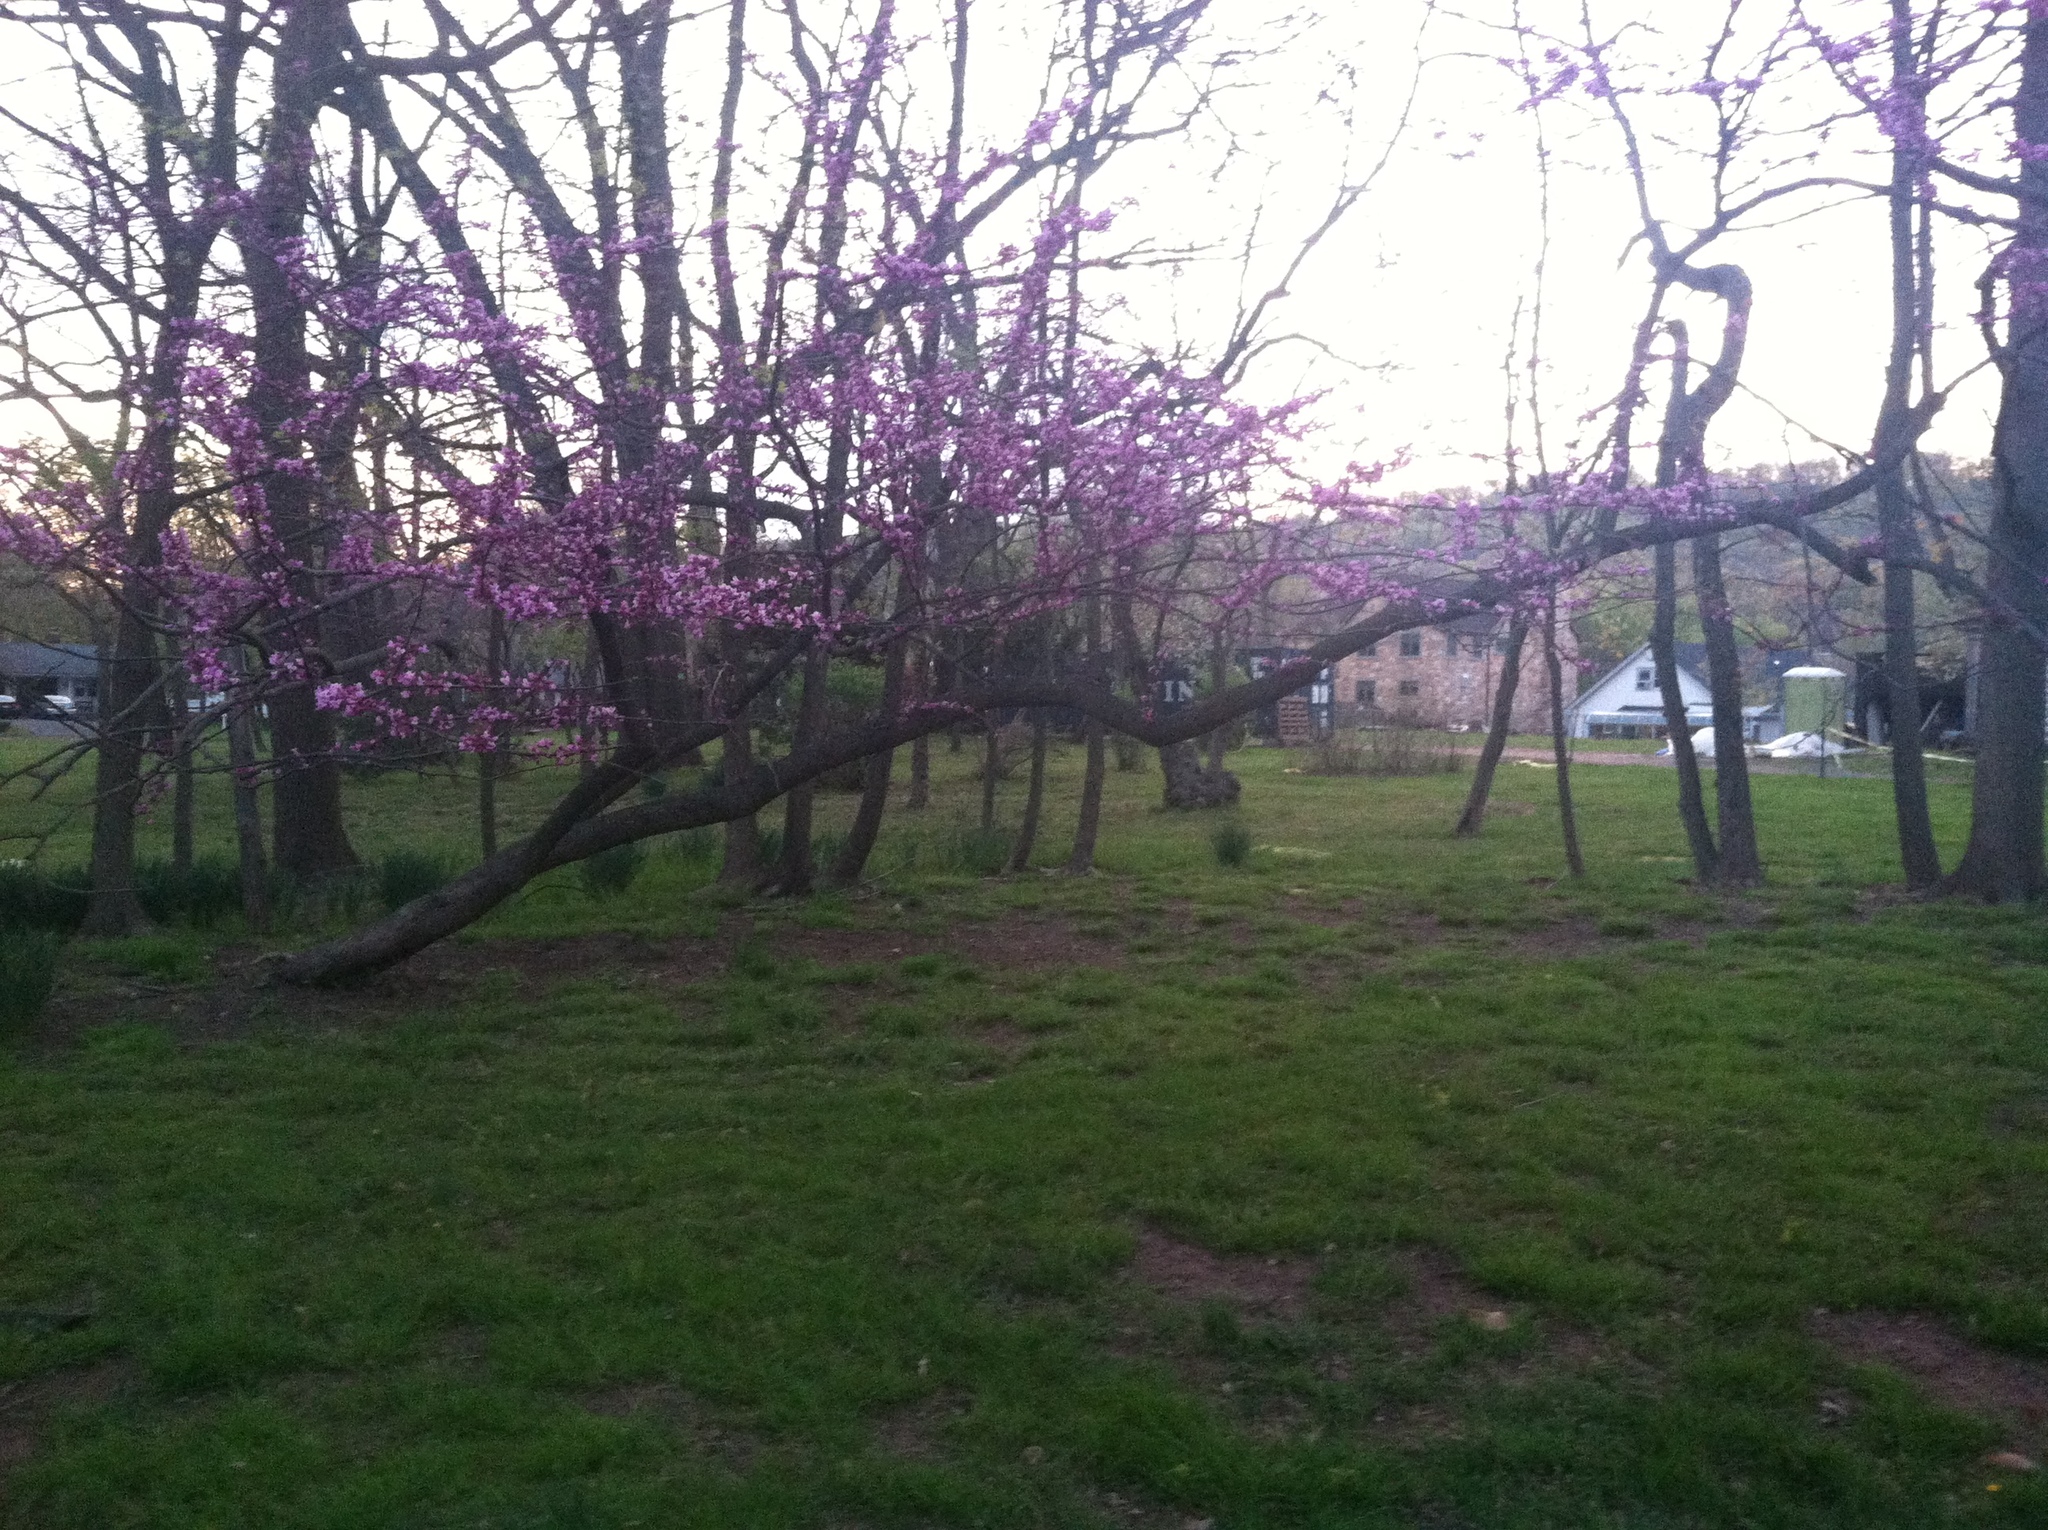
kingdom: Plantae
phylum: Tracheophyta
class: Magnoliopsida
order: Fabales
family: Fabaceae
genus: Cercis
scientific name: Cercis canadensis
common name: Eastern redbud
